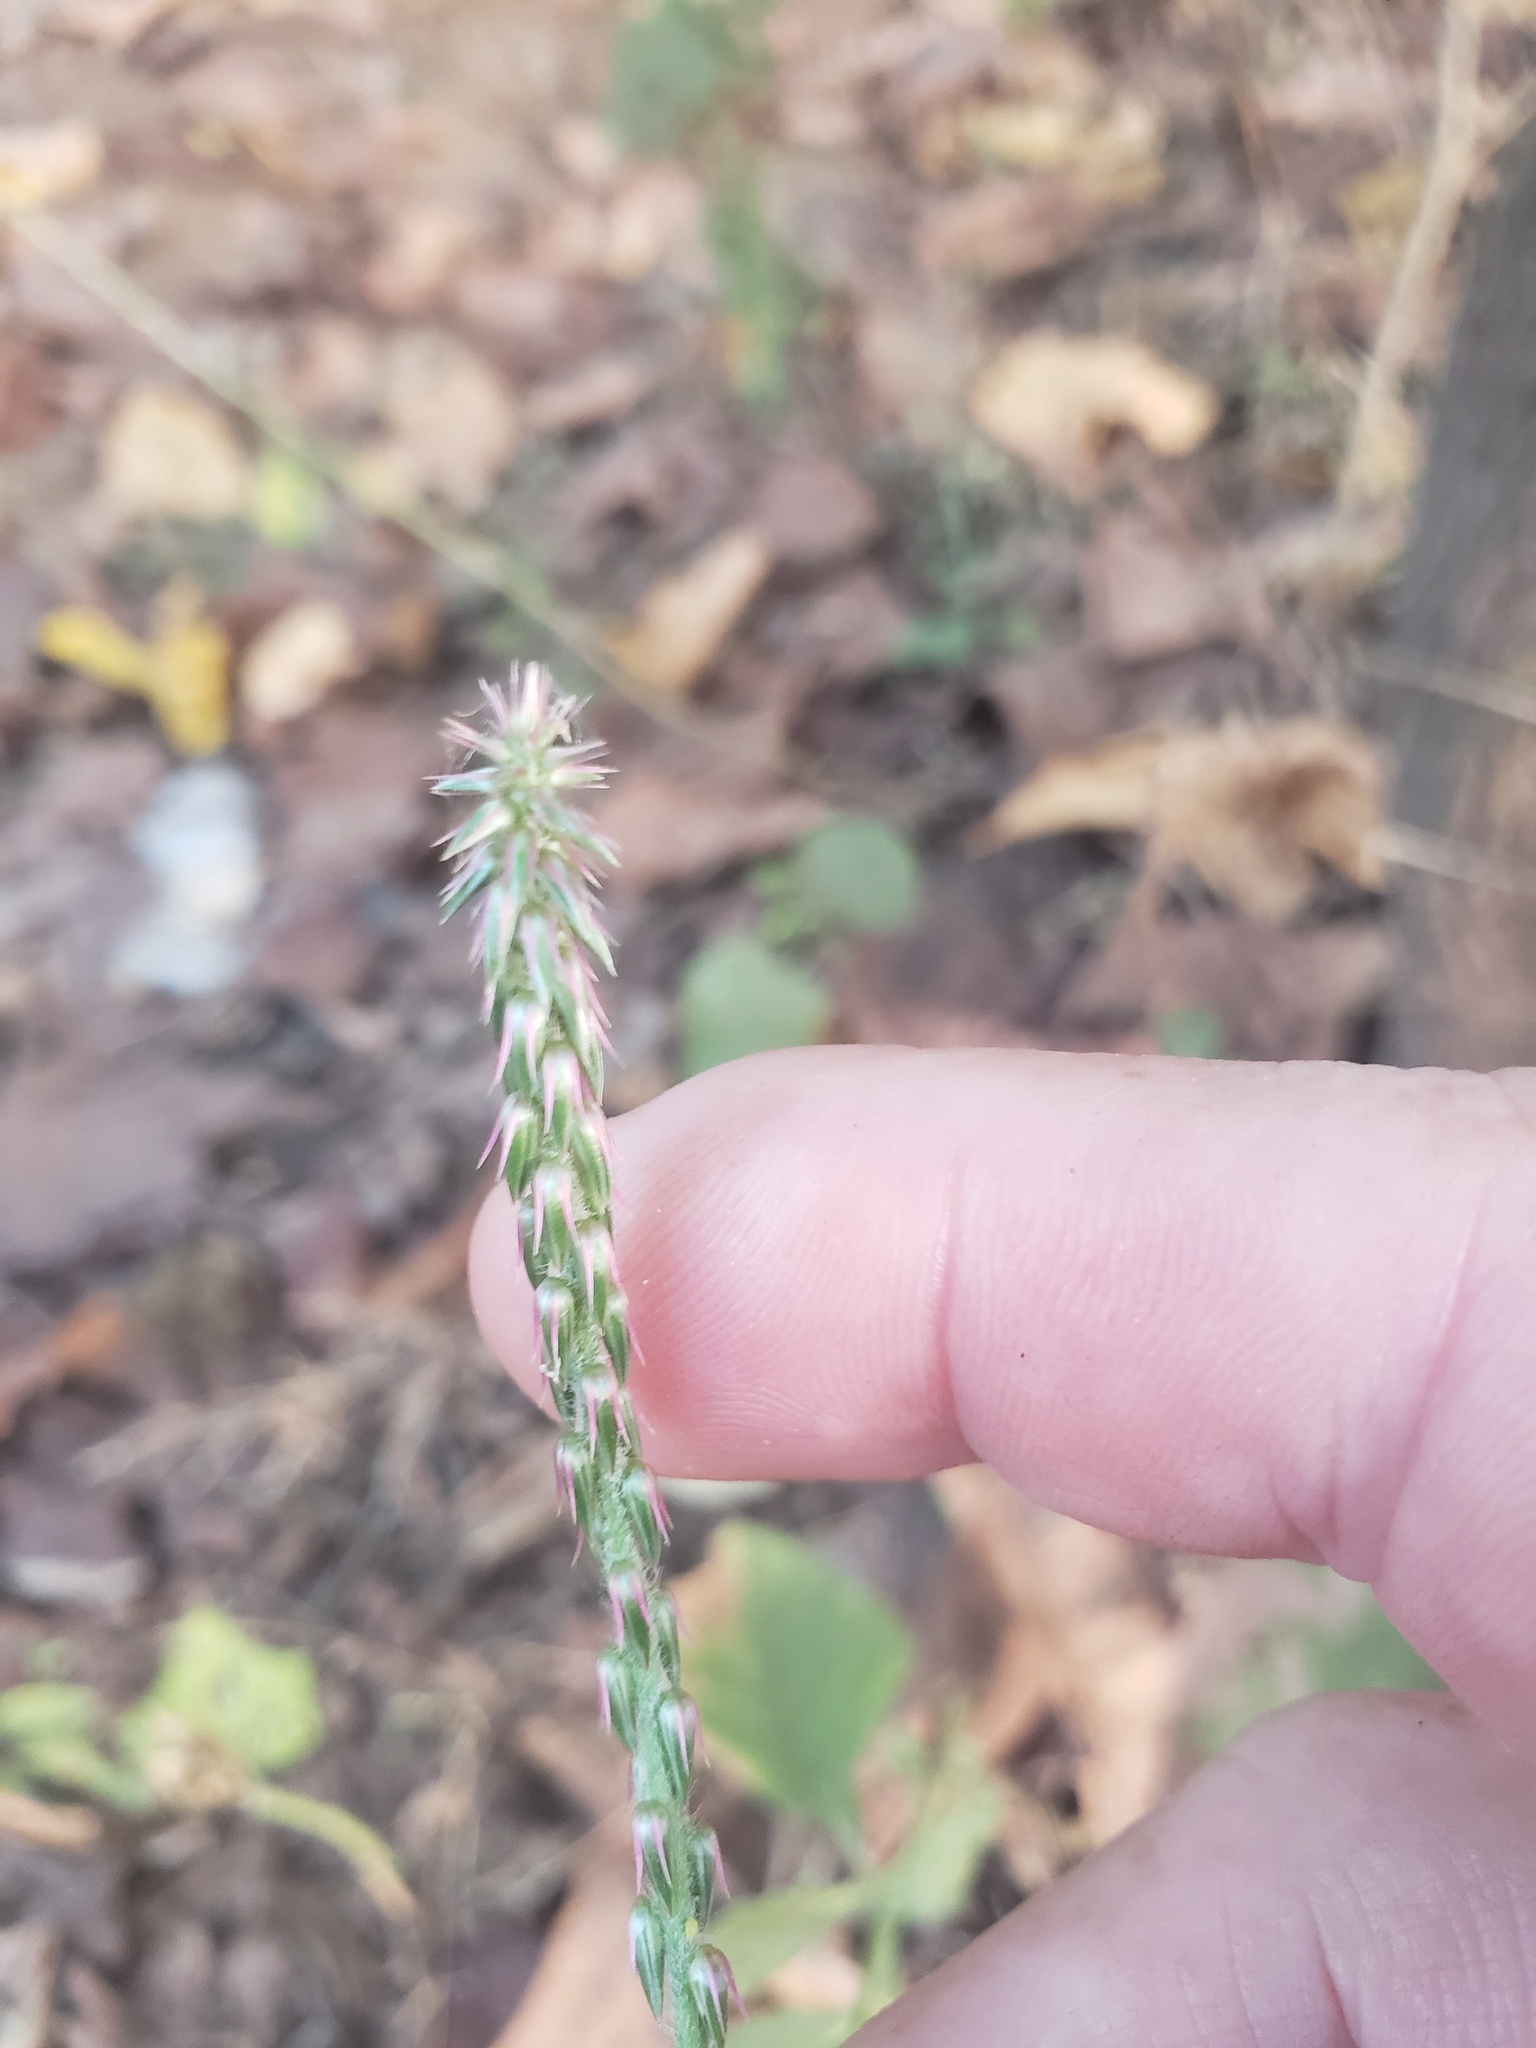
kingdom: Plantae
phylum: Tracheophyta
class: Magnoliopsida
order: Caryophyllales
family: Amaranthaceae
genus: Achyranthes
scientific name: Achyranthes aspera
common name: Devil's horsewhip
